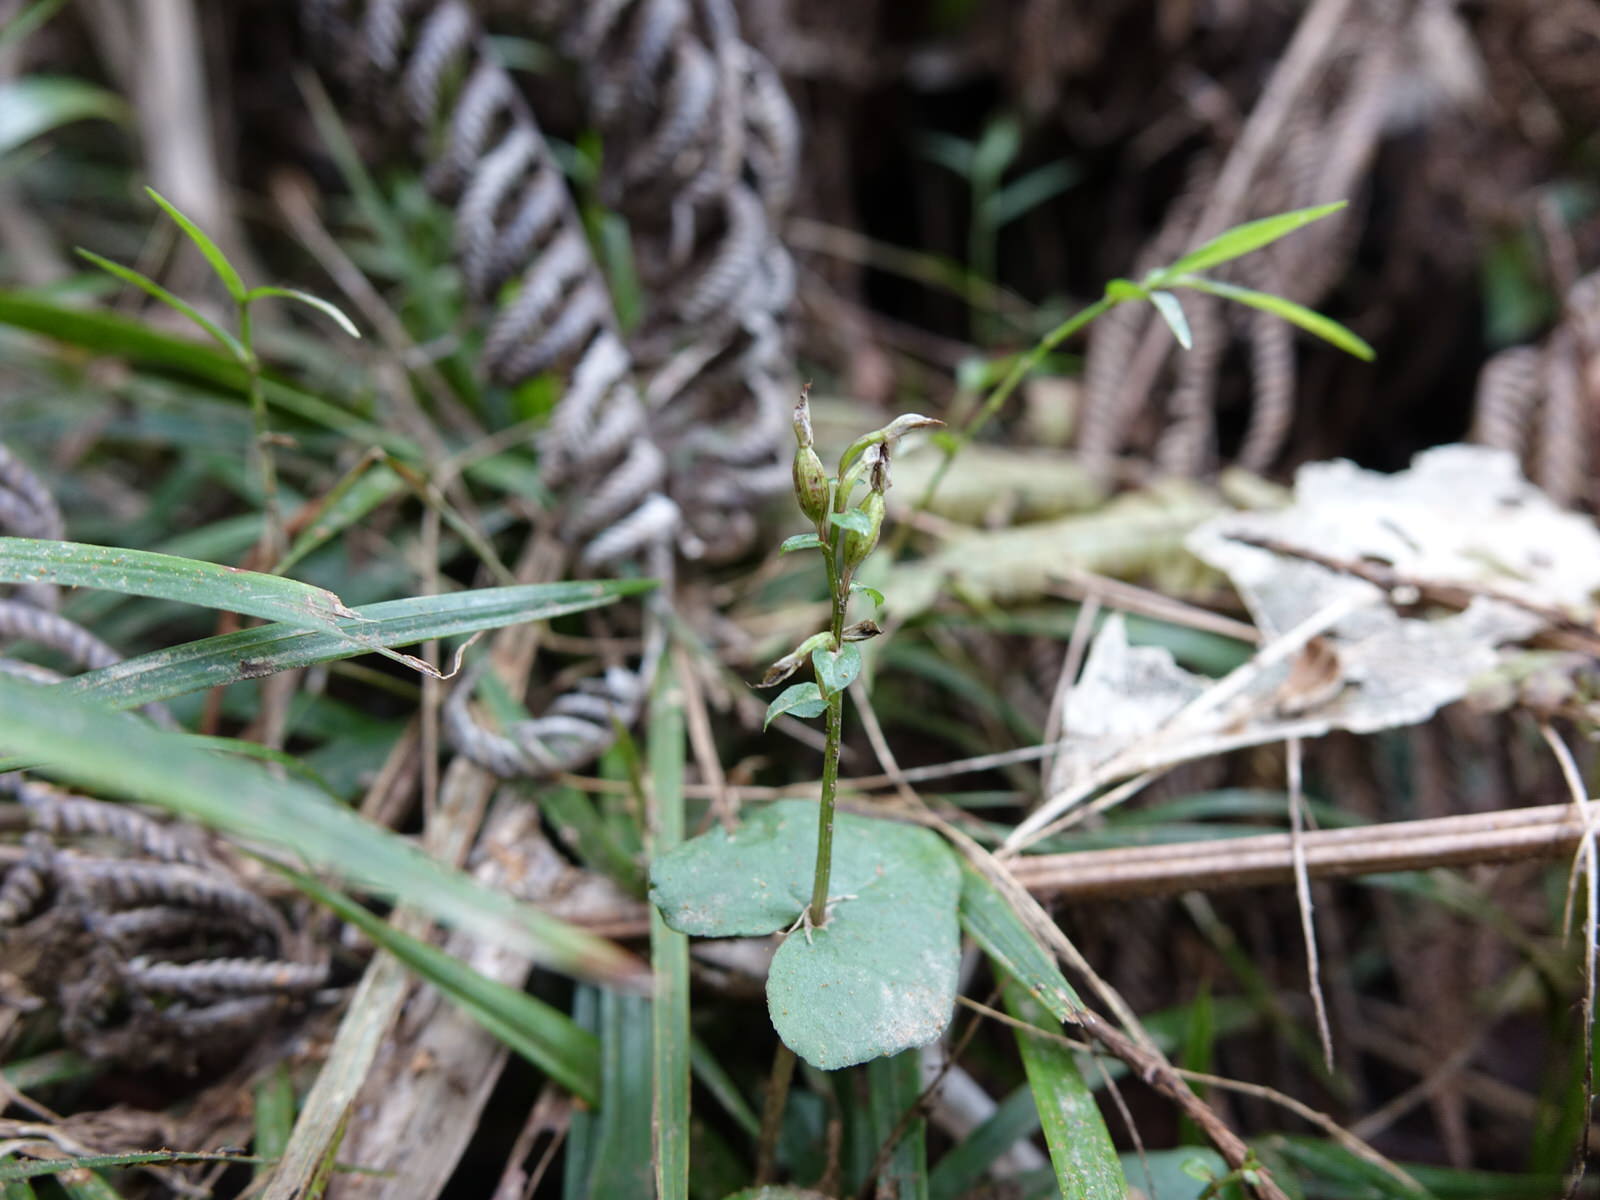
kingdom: Plantae
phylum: Tracheophyta
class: Liliopsida
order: Asparagales
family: Orchidaceae
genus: Acianthus
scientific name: Acianthus sinclairii
